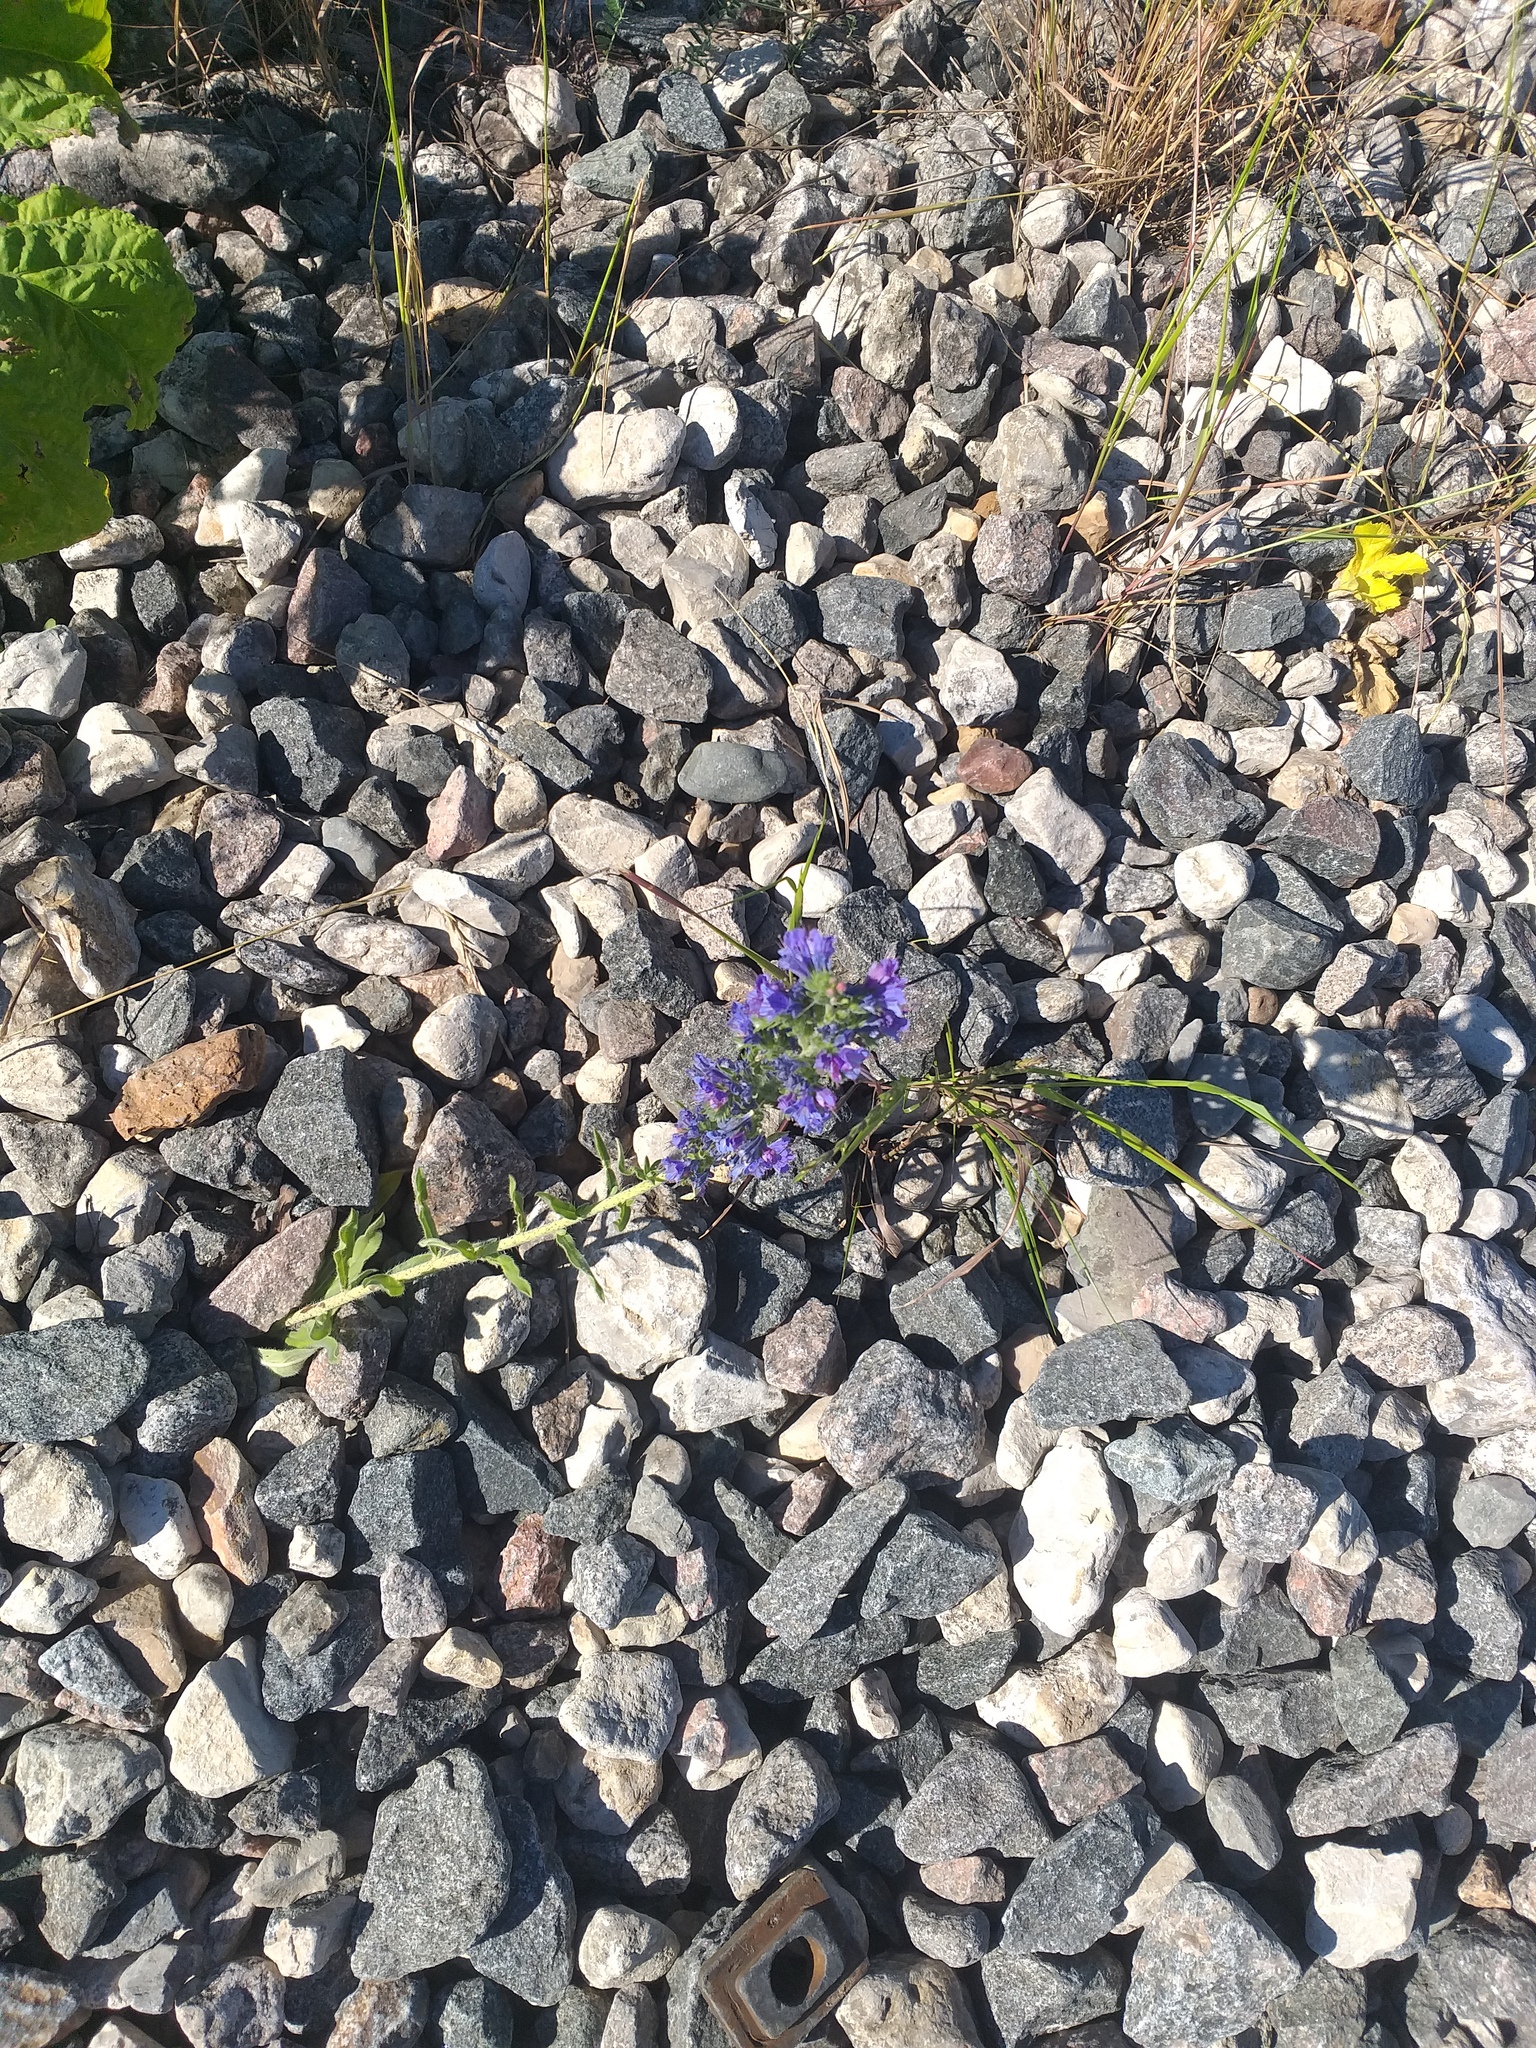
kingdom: Plantae
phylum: Tracheophyta
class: Magnoliopsida
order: Boraginales
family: Boraginaceae
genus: Echium
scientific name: Echium vulgare
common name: Common viper's bugloss
